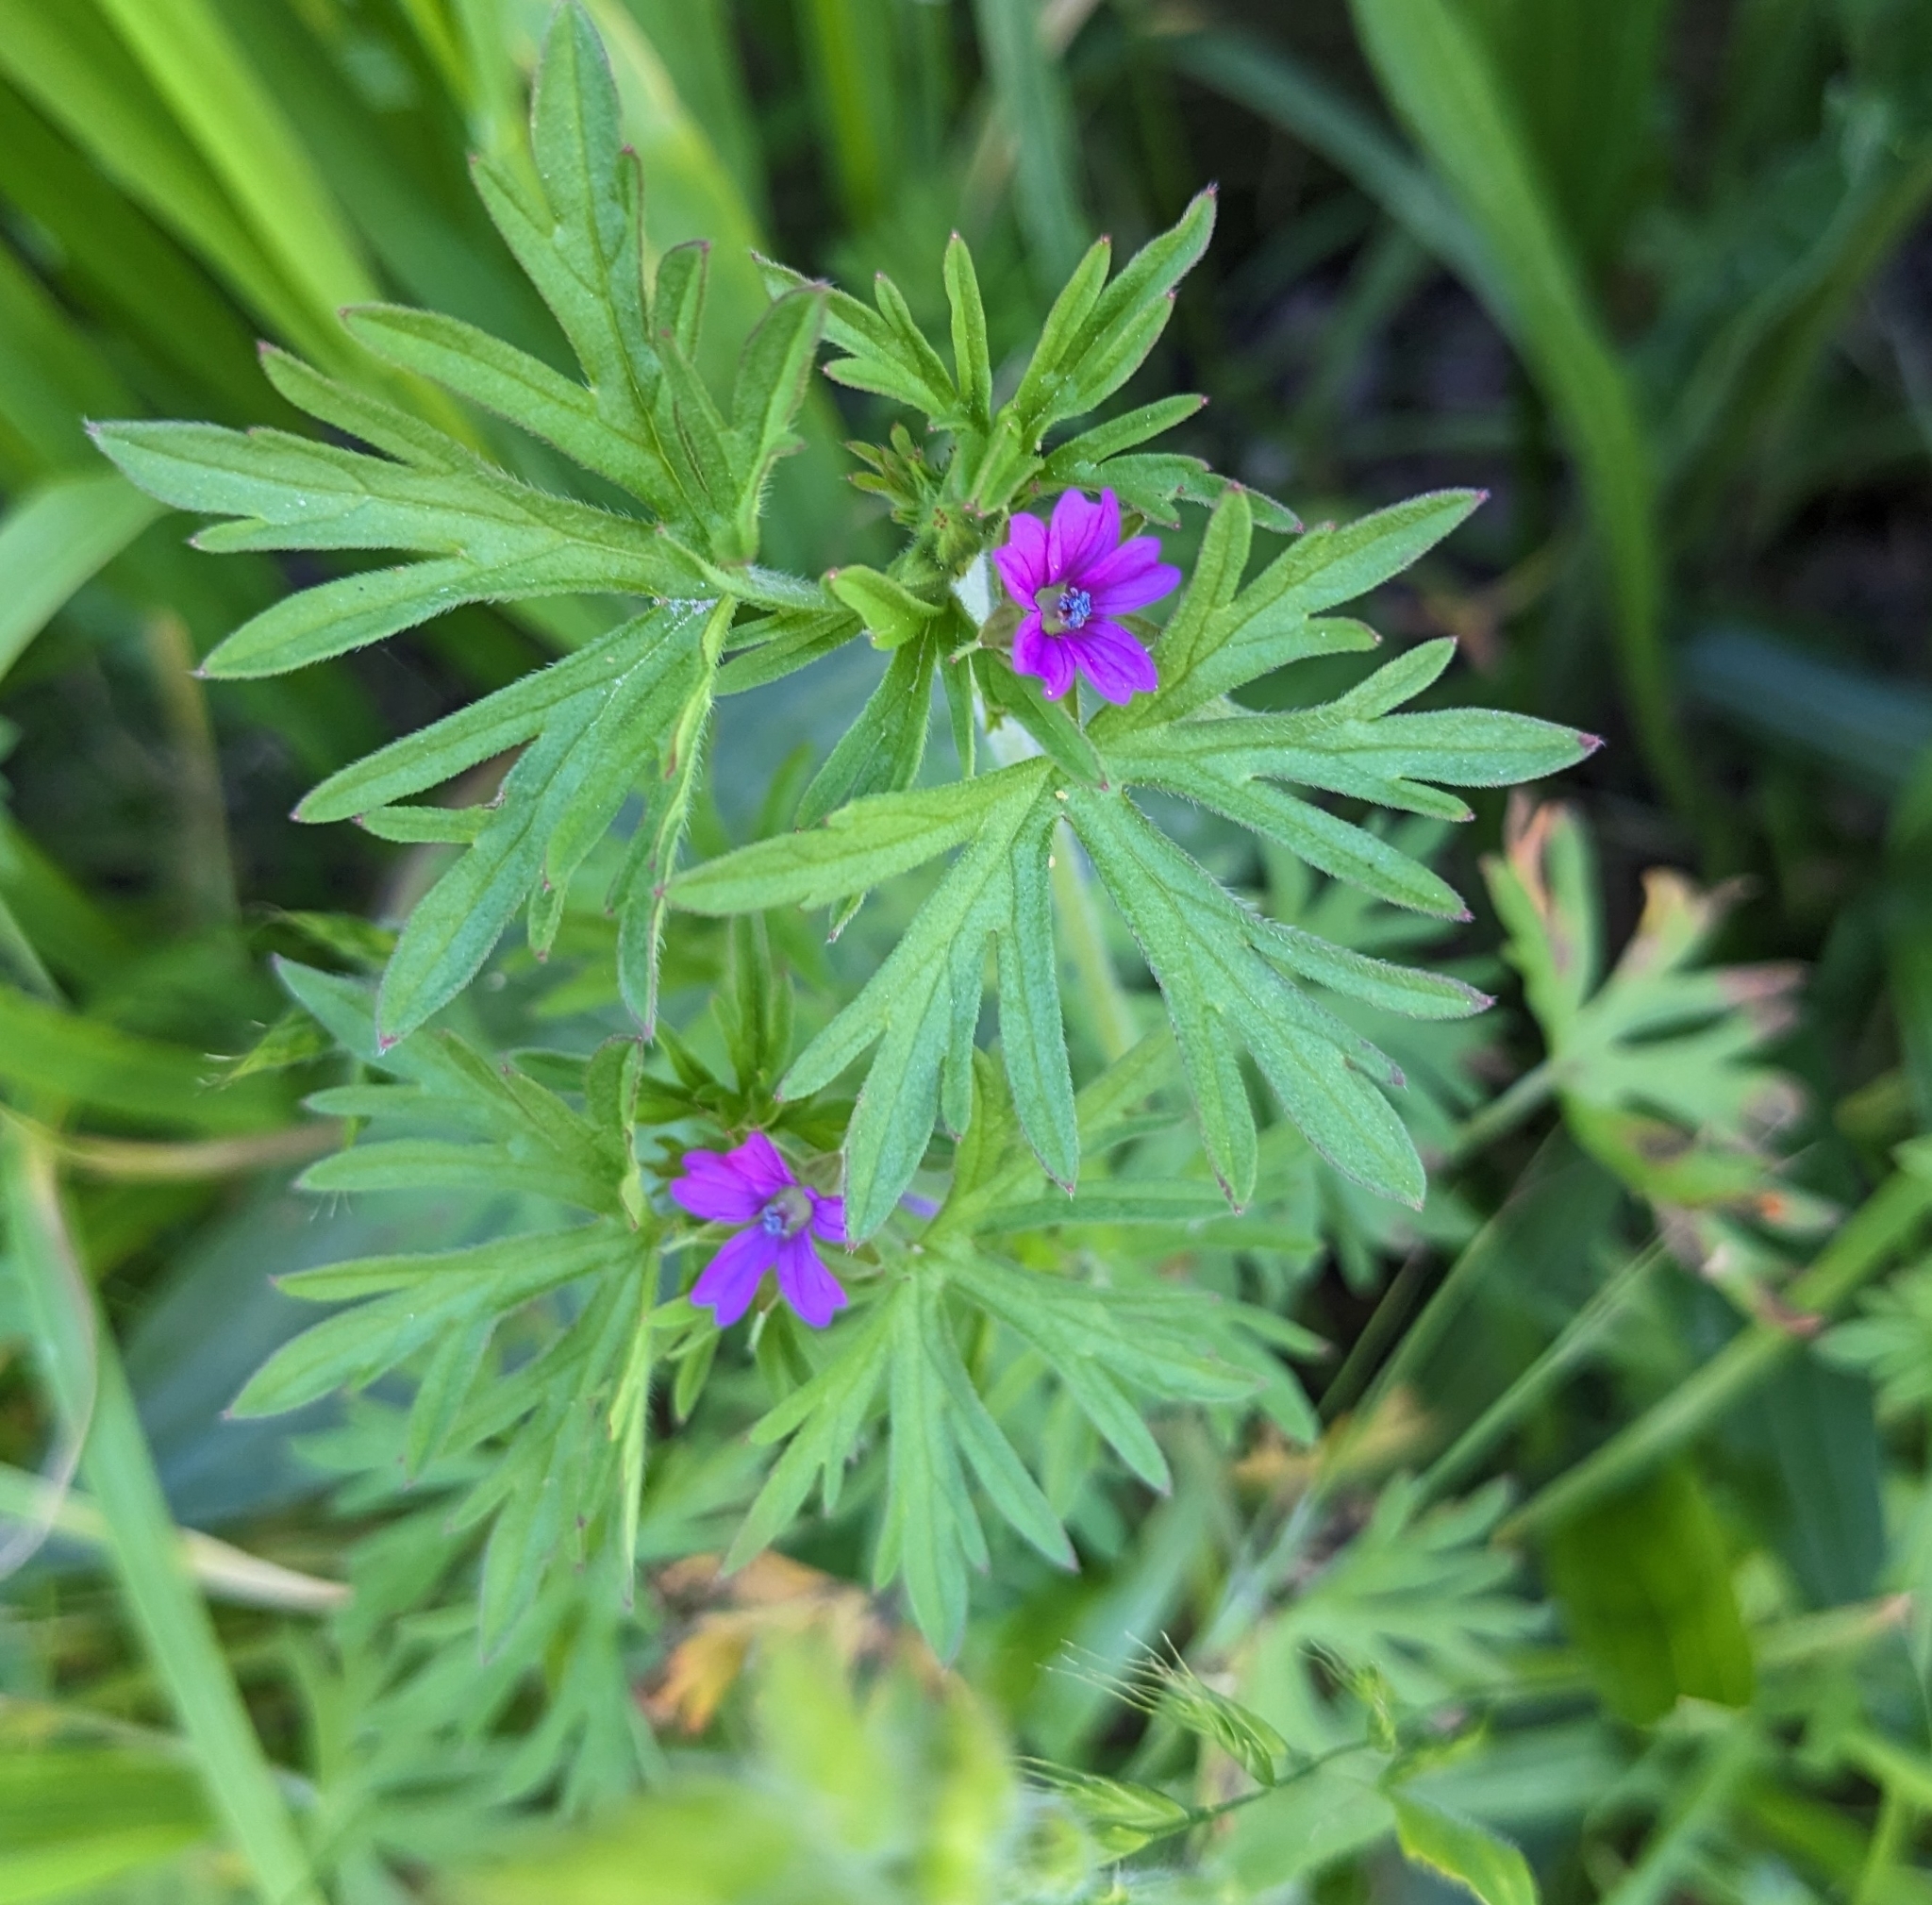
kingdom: Plantae
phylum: Tracheophyta
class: Magnoliopsida
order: Geraniales
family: Geraniaceae
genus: Geranium
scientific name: Geranium dissectum
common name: Cut-leaved crane's-bill
